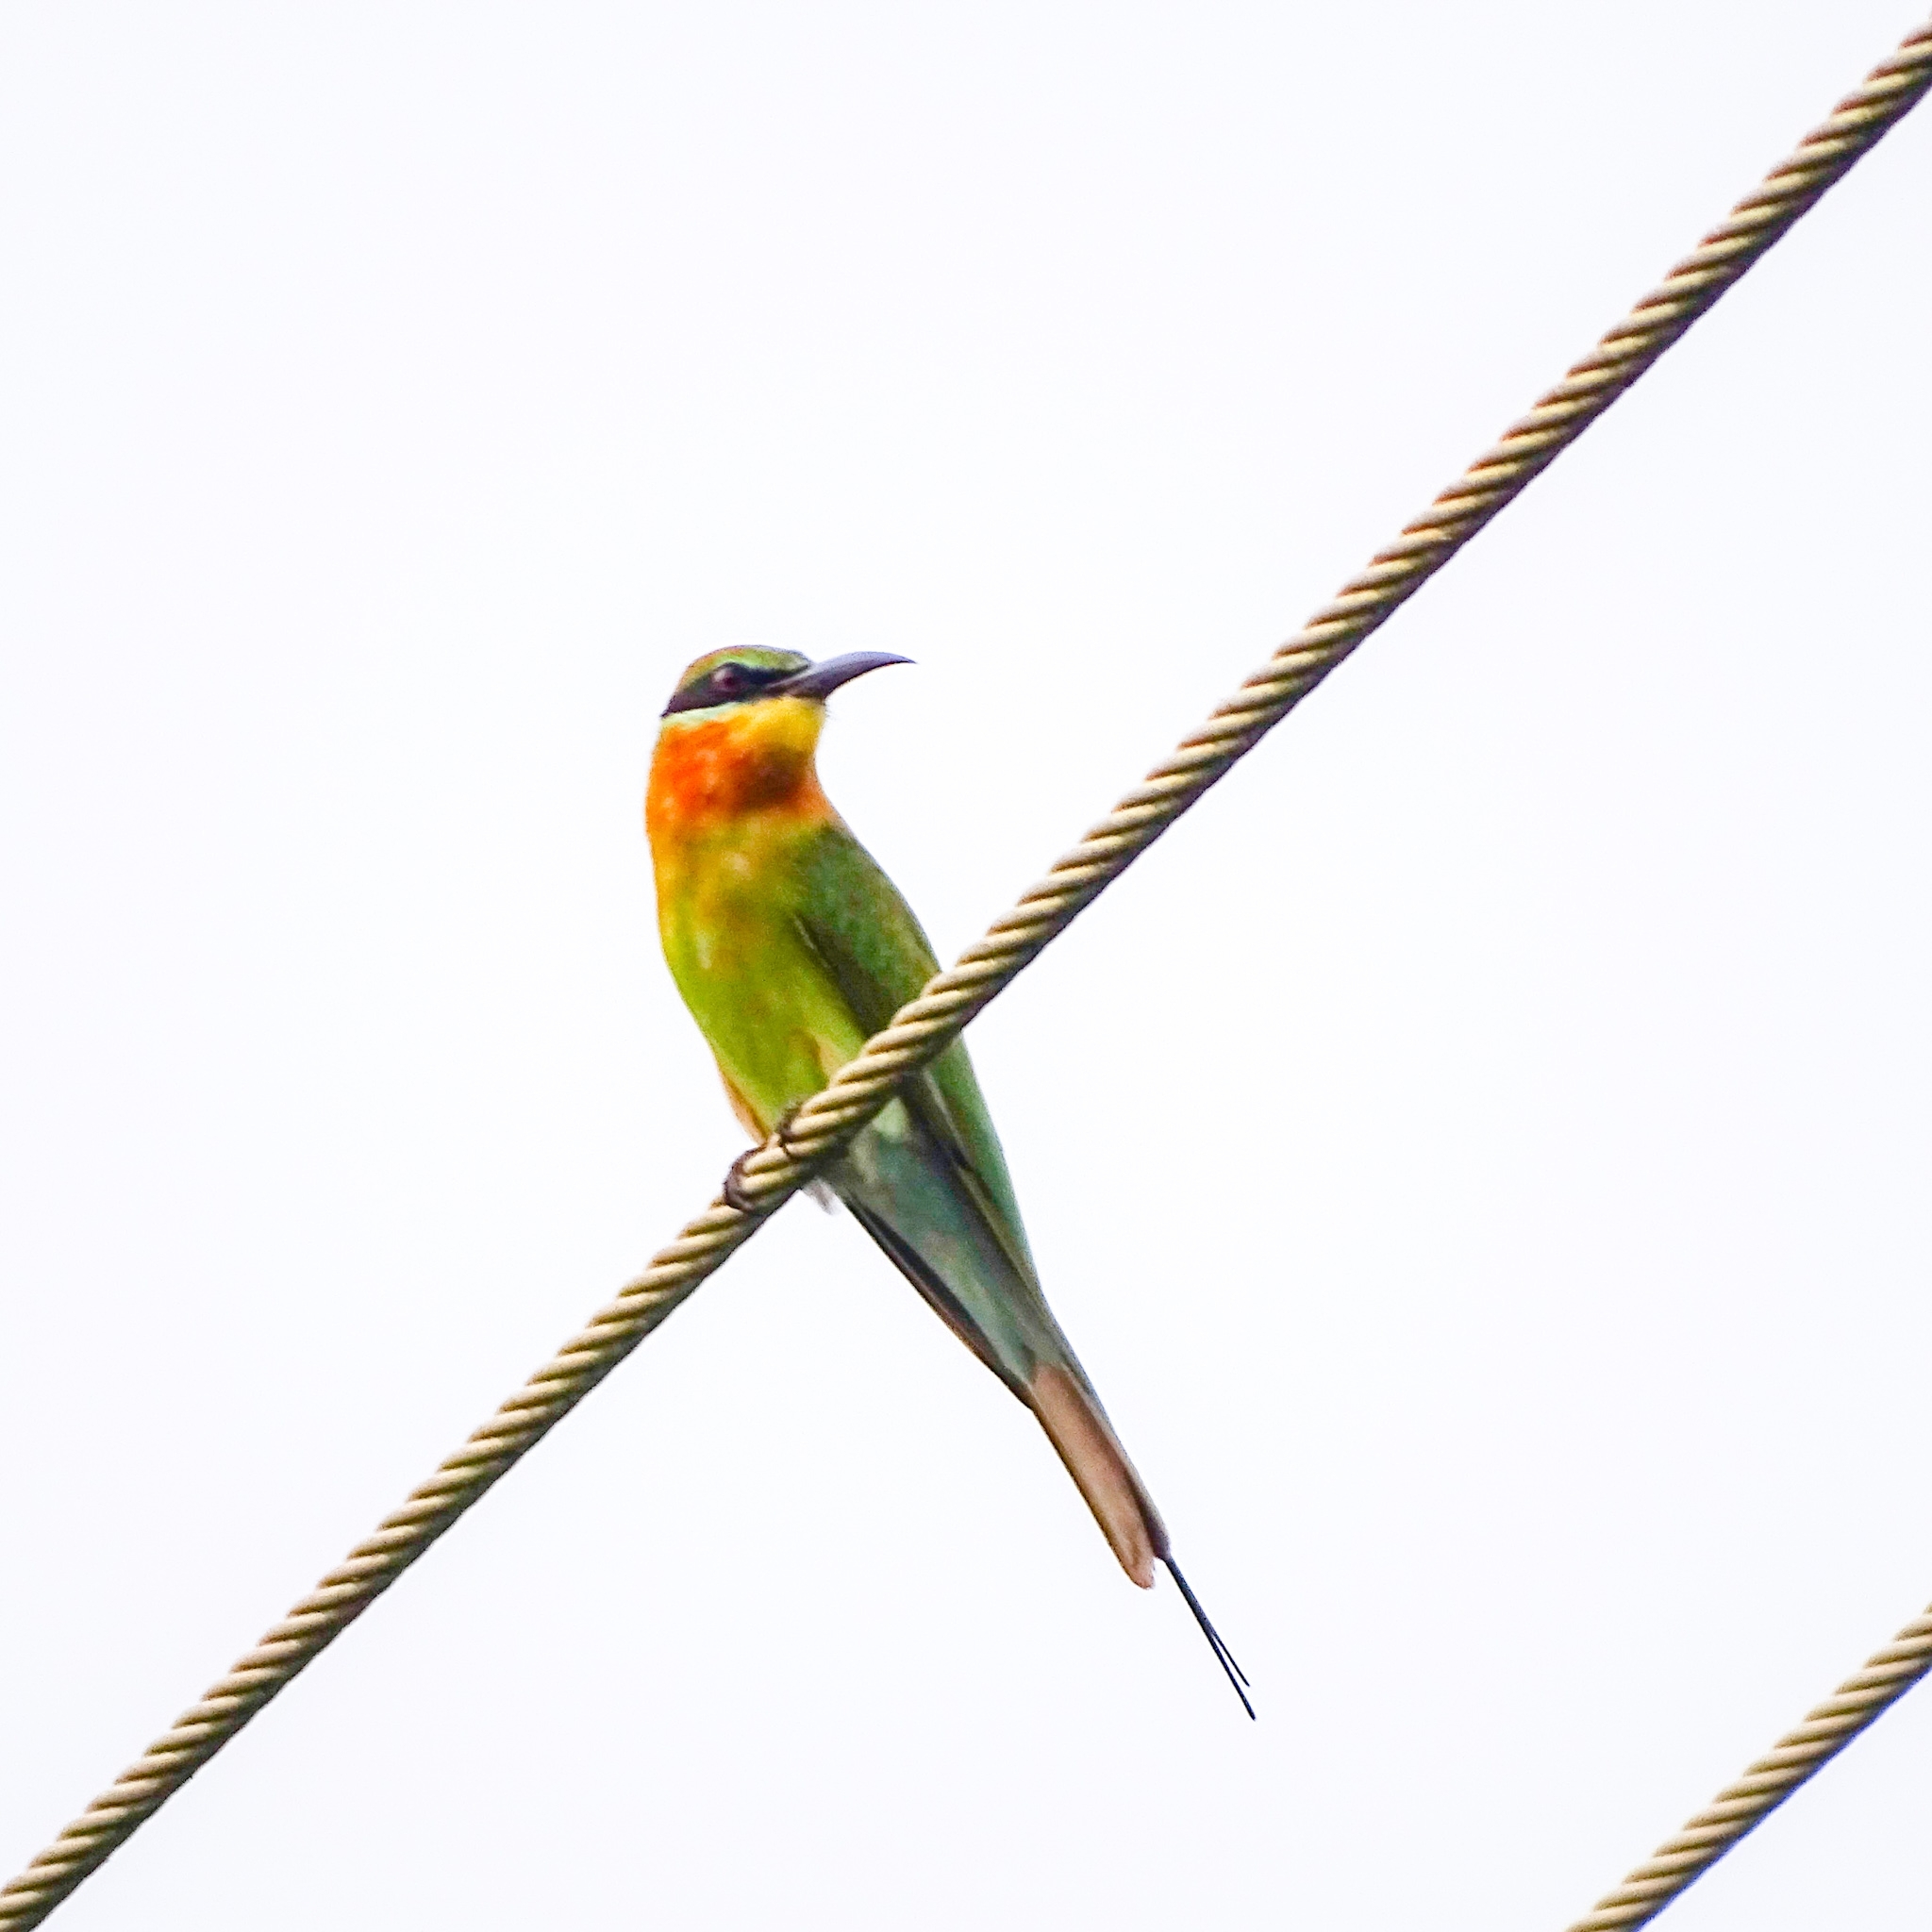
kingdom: Animalia
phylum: Chordata
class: Aves
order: Coraciiformes
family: Meropidae
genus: Merops
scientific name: Merops philippinus
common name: Blue-tailed bee-eater
